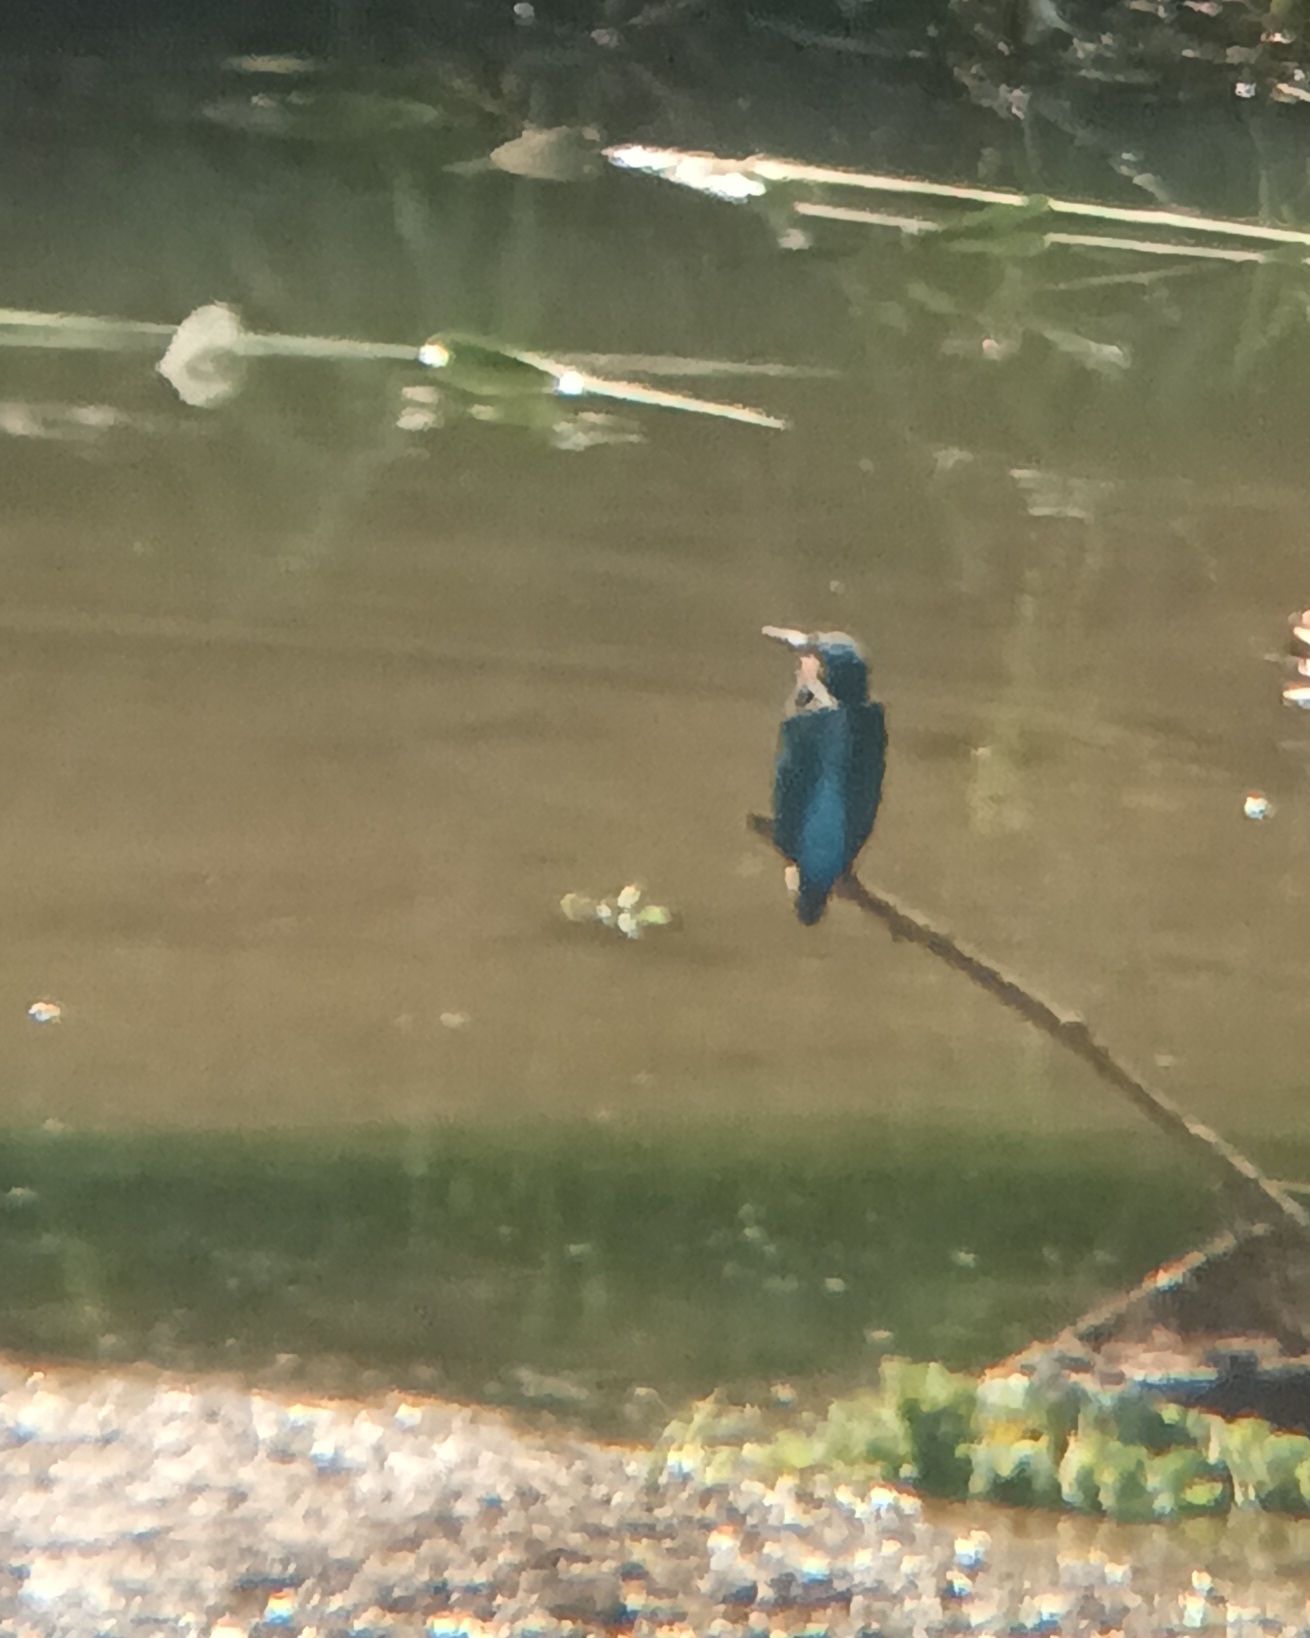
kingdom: Animalia
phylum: Chordata
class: Aves
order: Coraciiformes
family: Alcedinidae
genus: Alcedo
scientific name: Alcedo atthis
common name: Common kingfisher
